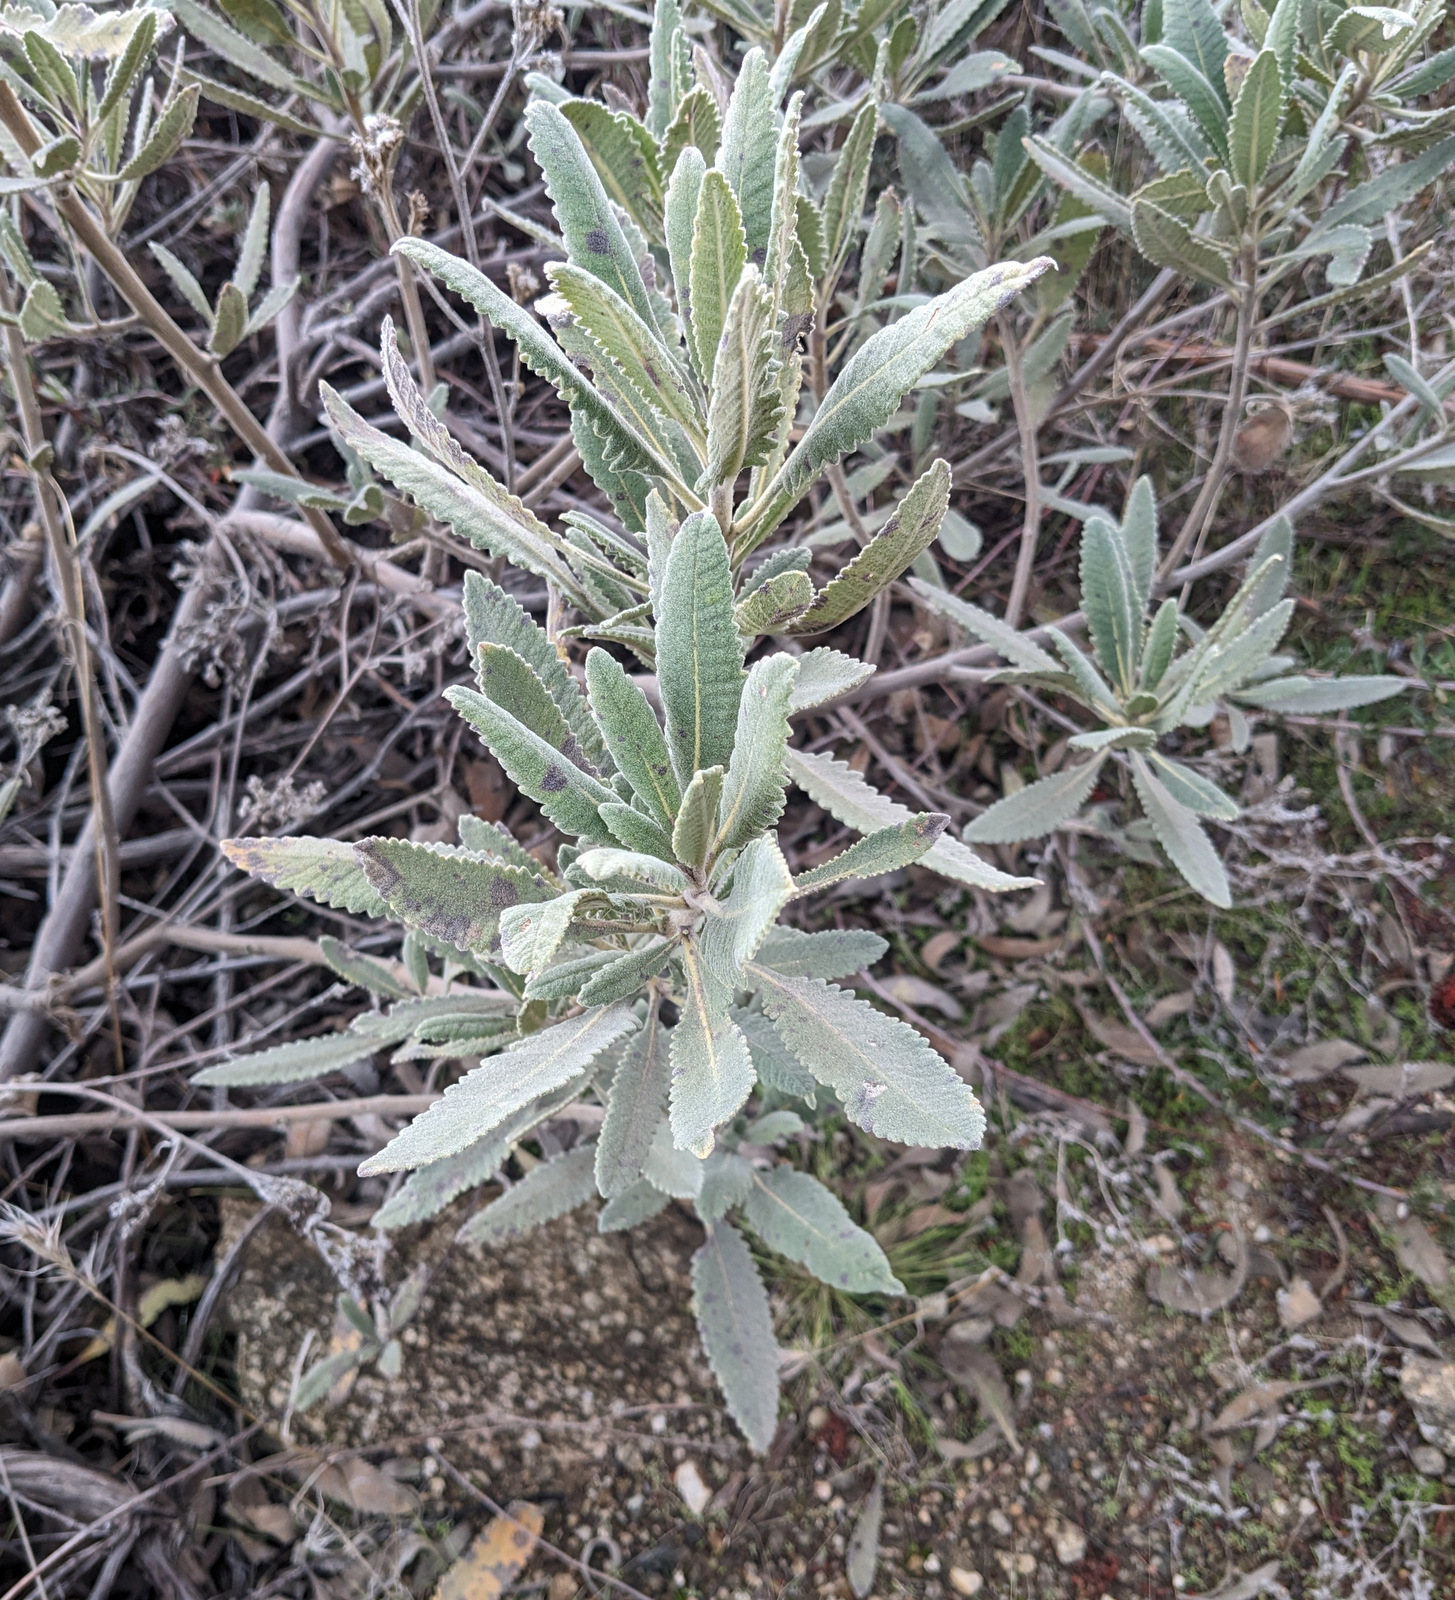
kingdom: Plantae
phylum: Tracheophyta
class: Magnoliopsida
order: Boraginales
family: Namaceae
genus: Eriodictyon
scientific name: Eriodictyon crassifolium
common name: Thick-leaf yerba-santa
